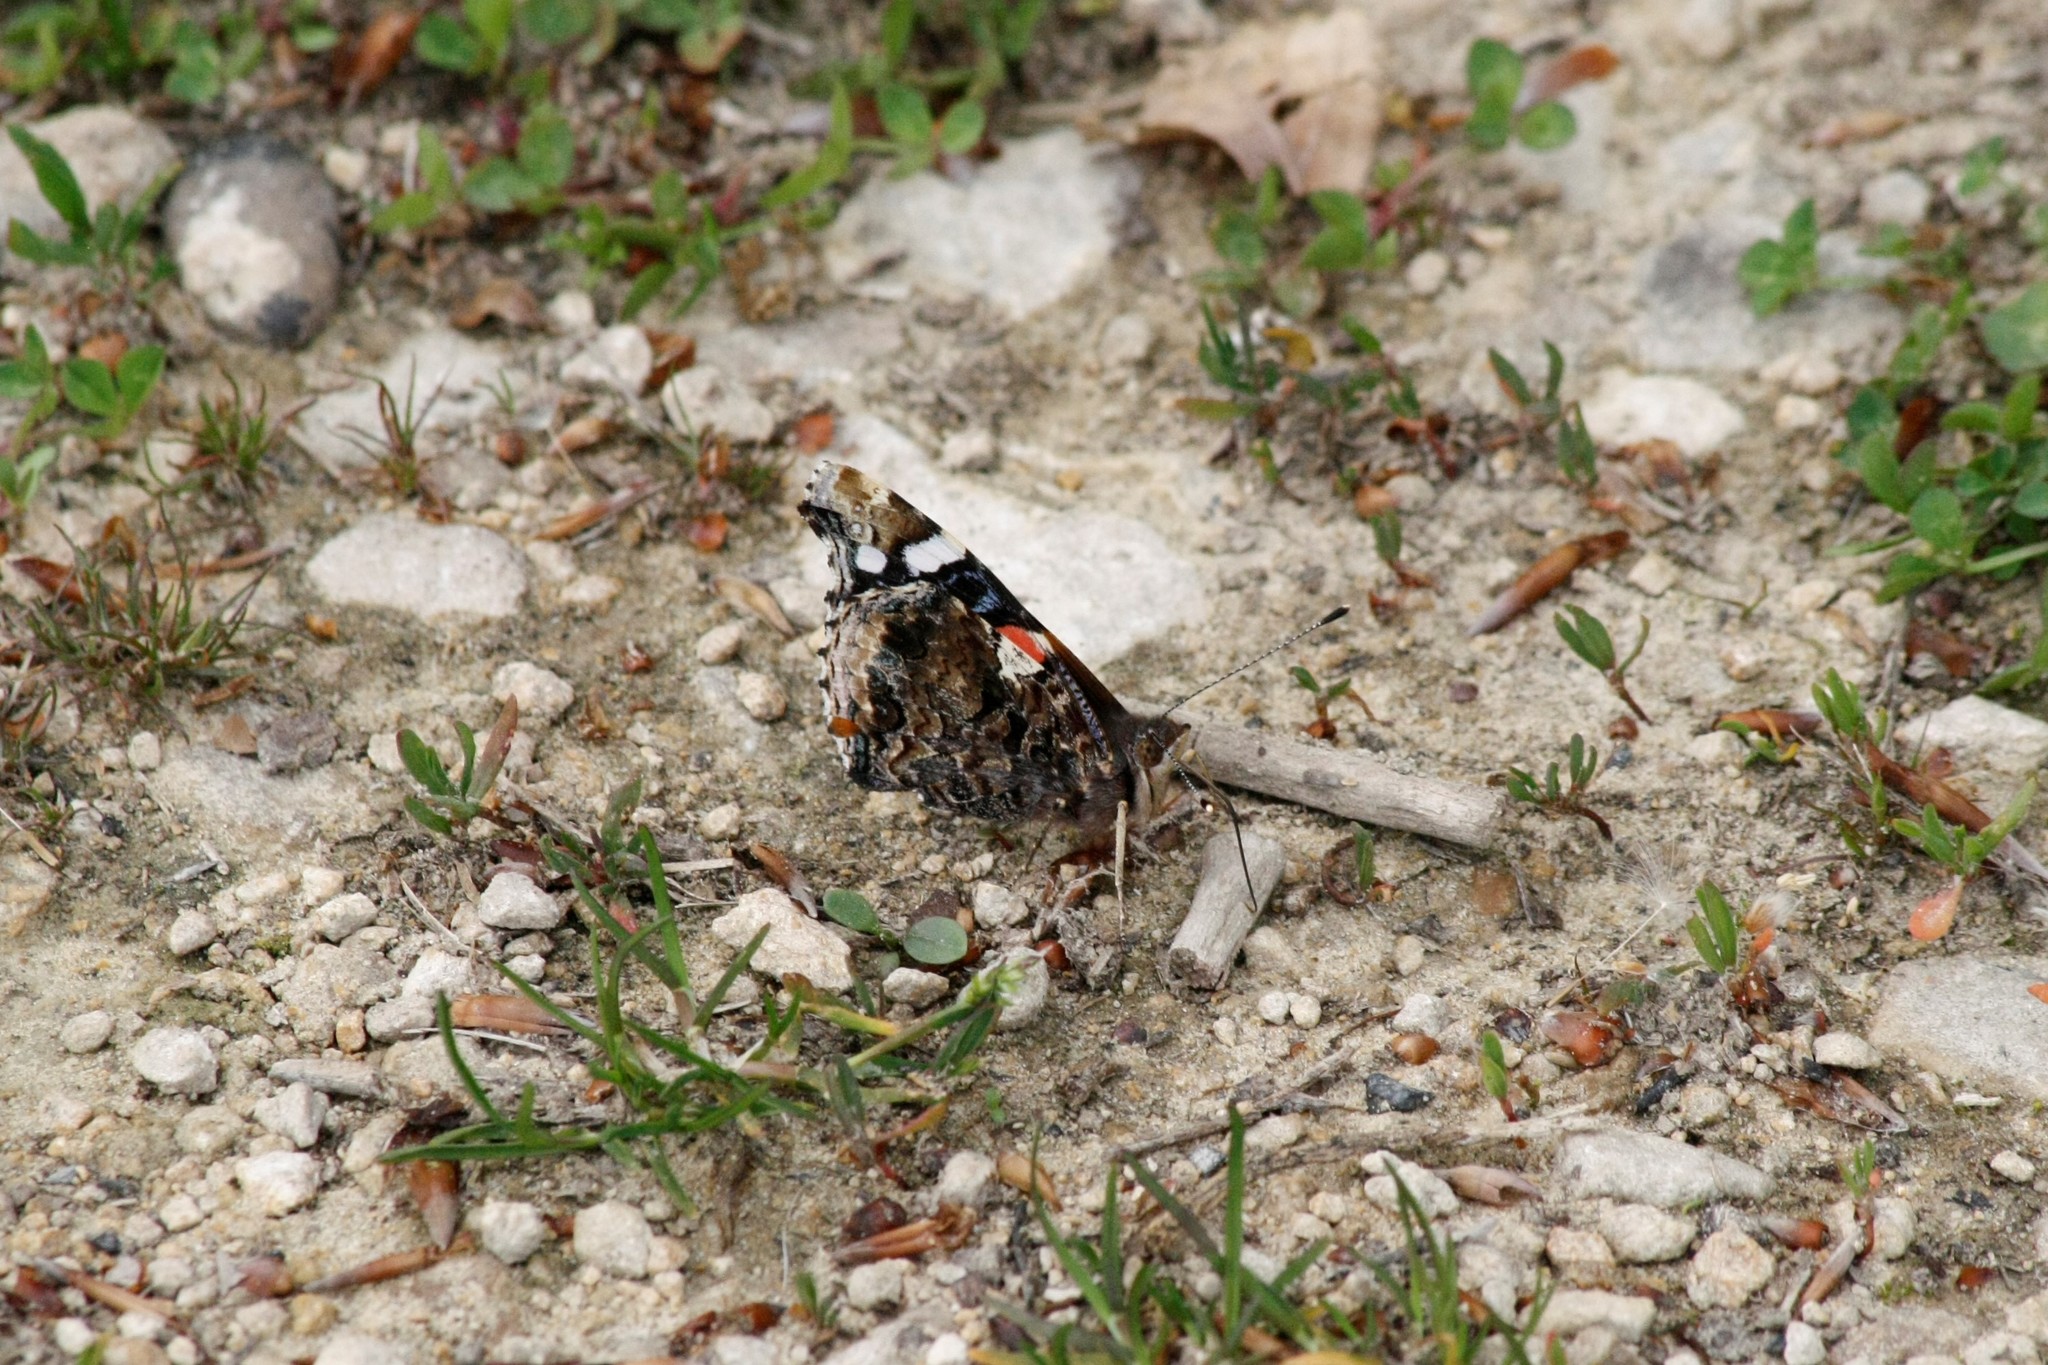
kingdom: Animalia
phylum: Arthropoda
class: Insecta
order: Lepidoptera
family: Nymphalidae
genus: Vanessa
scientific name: Vanessa atalanta
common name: Red admiral
